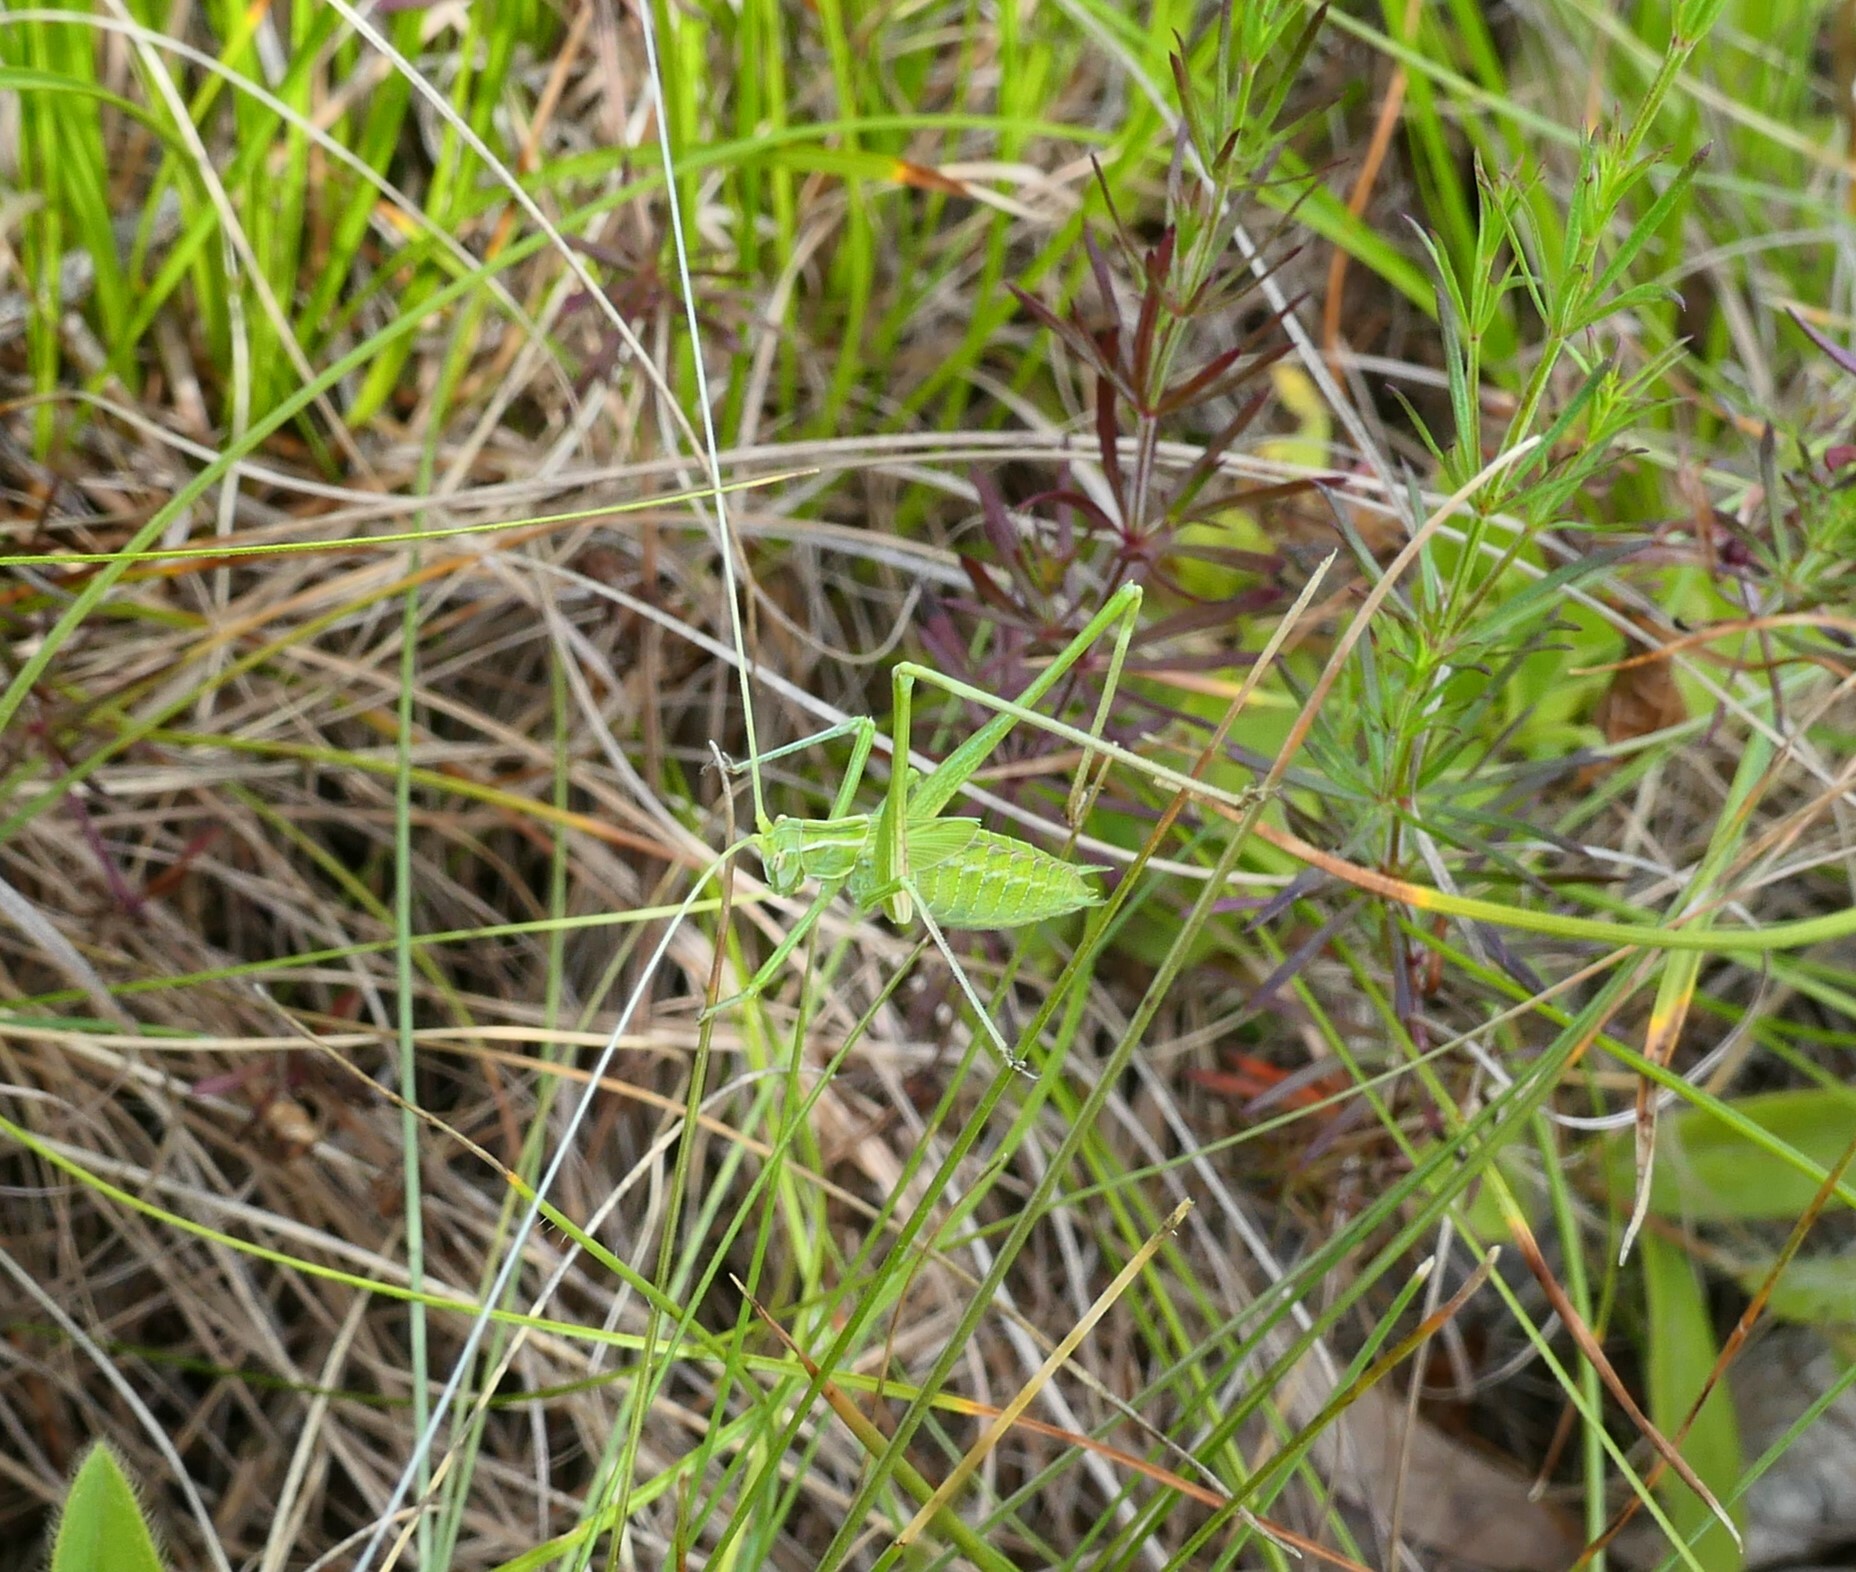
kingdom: Animalia
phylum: Arthropoda
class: Insecta
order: Orthoptera
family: Tettigoniidae
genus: Tylopsis
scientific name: Tylopsis lilifolia
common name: Lily bush-cricket
